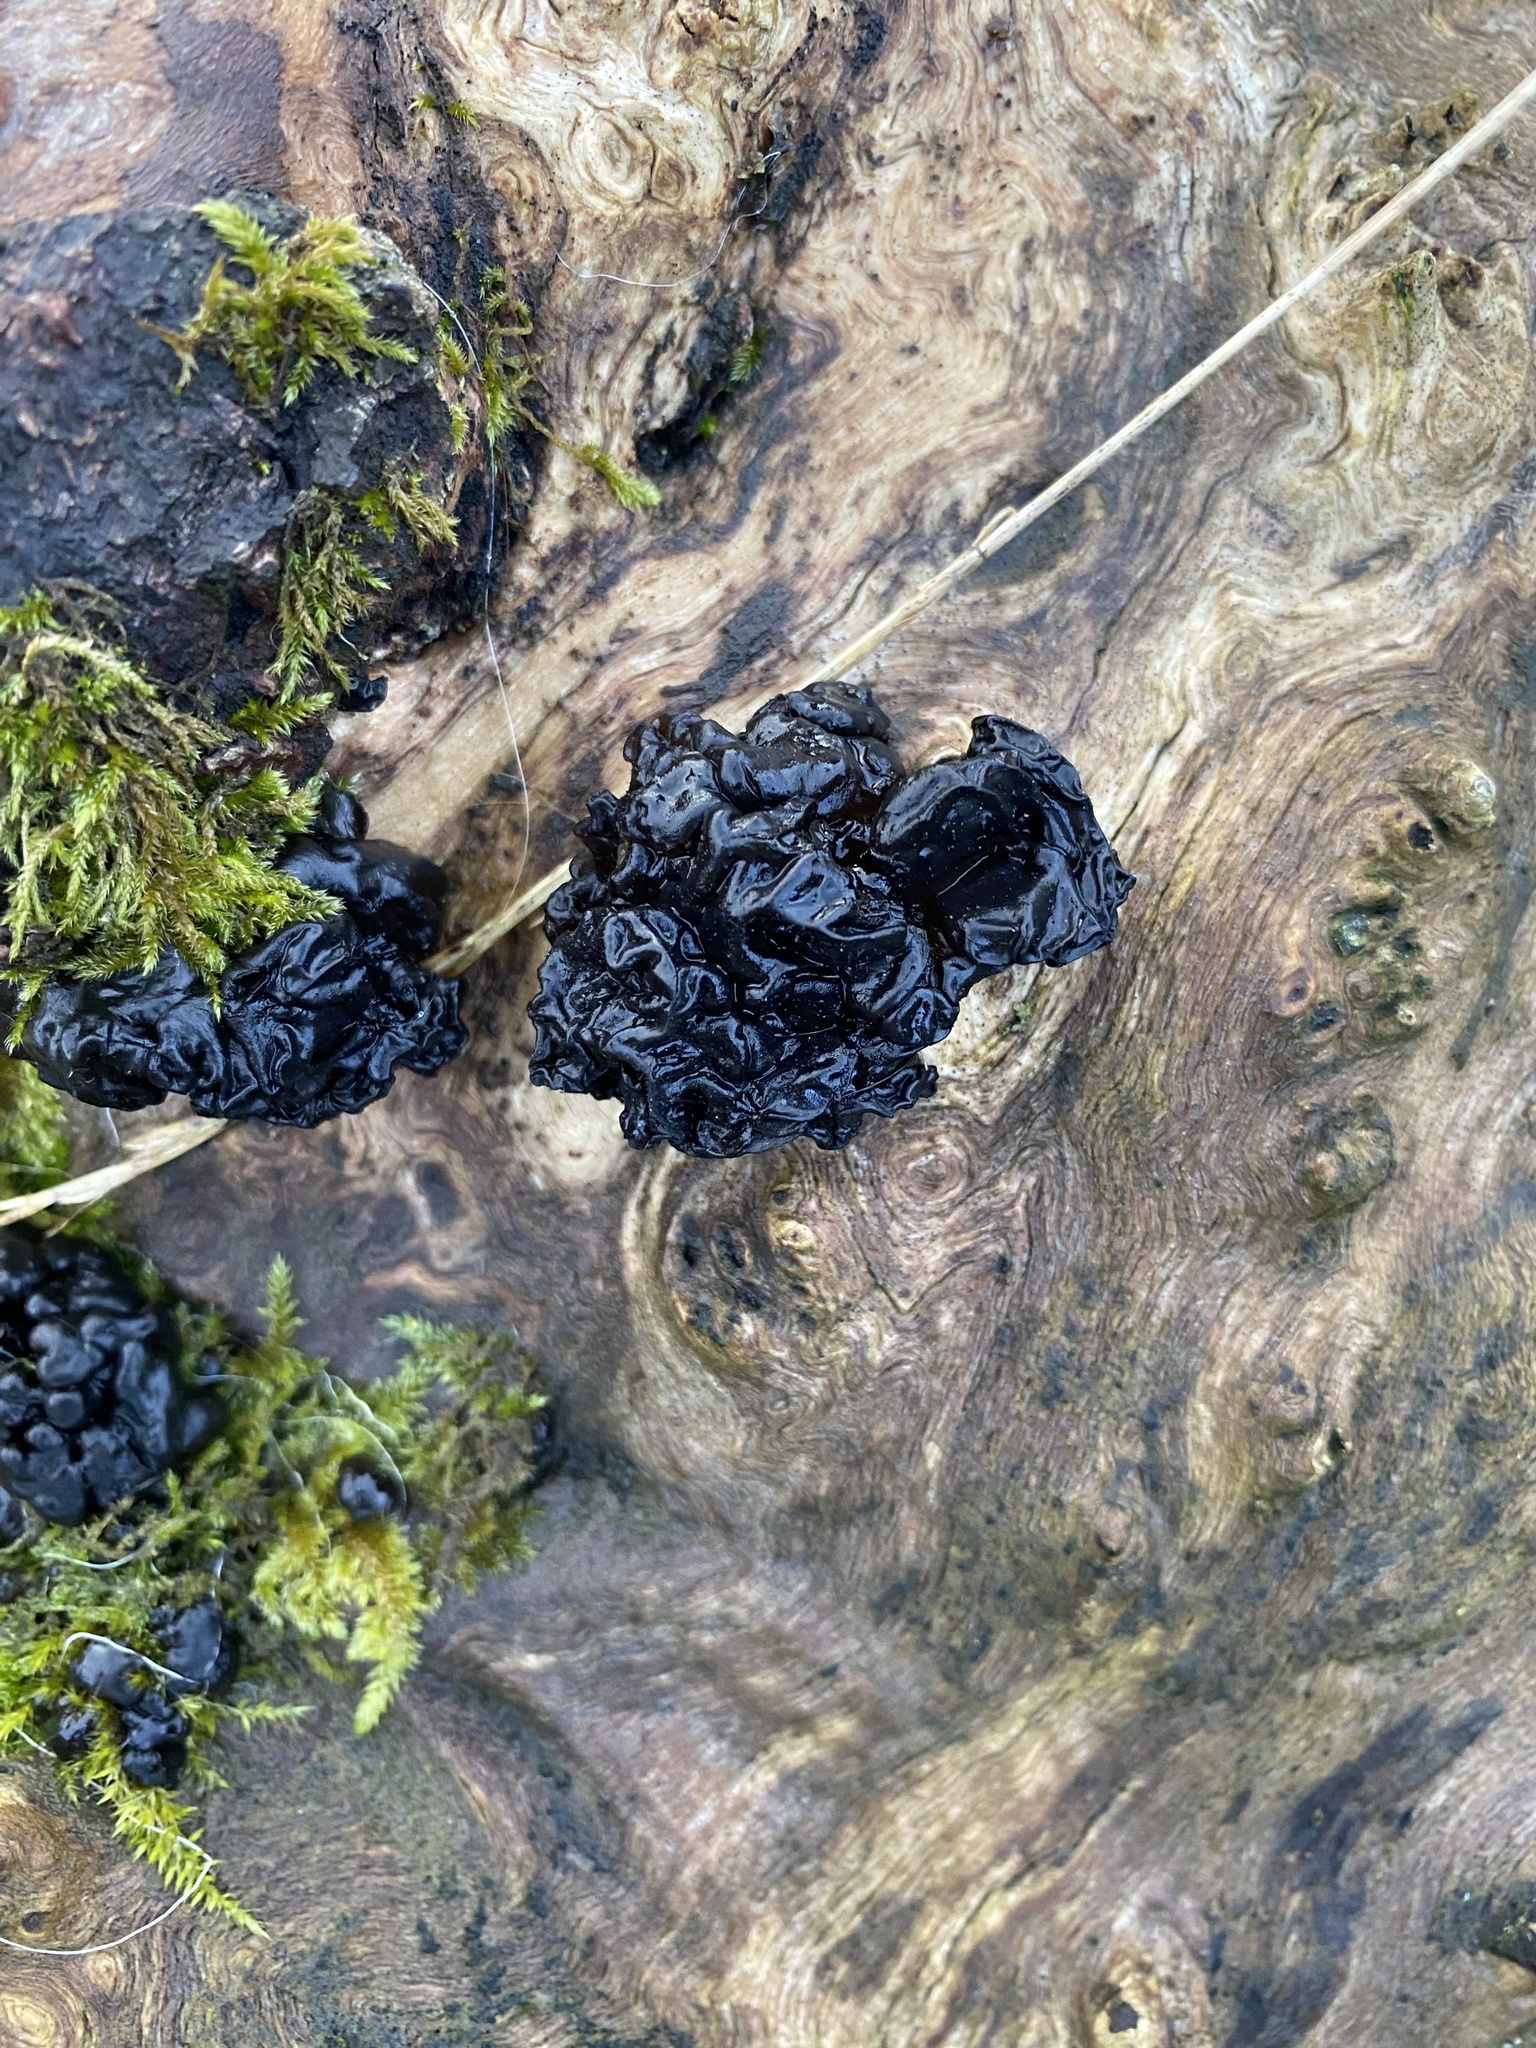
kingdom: Fungi
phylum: Basidiomycota
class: Agaricomycetes
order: Auriculariales
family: Auriculariaceae
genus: Exidia
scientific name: Exidia glandulosa
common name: Witches' butter
